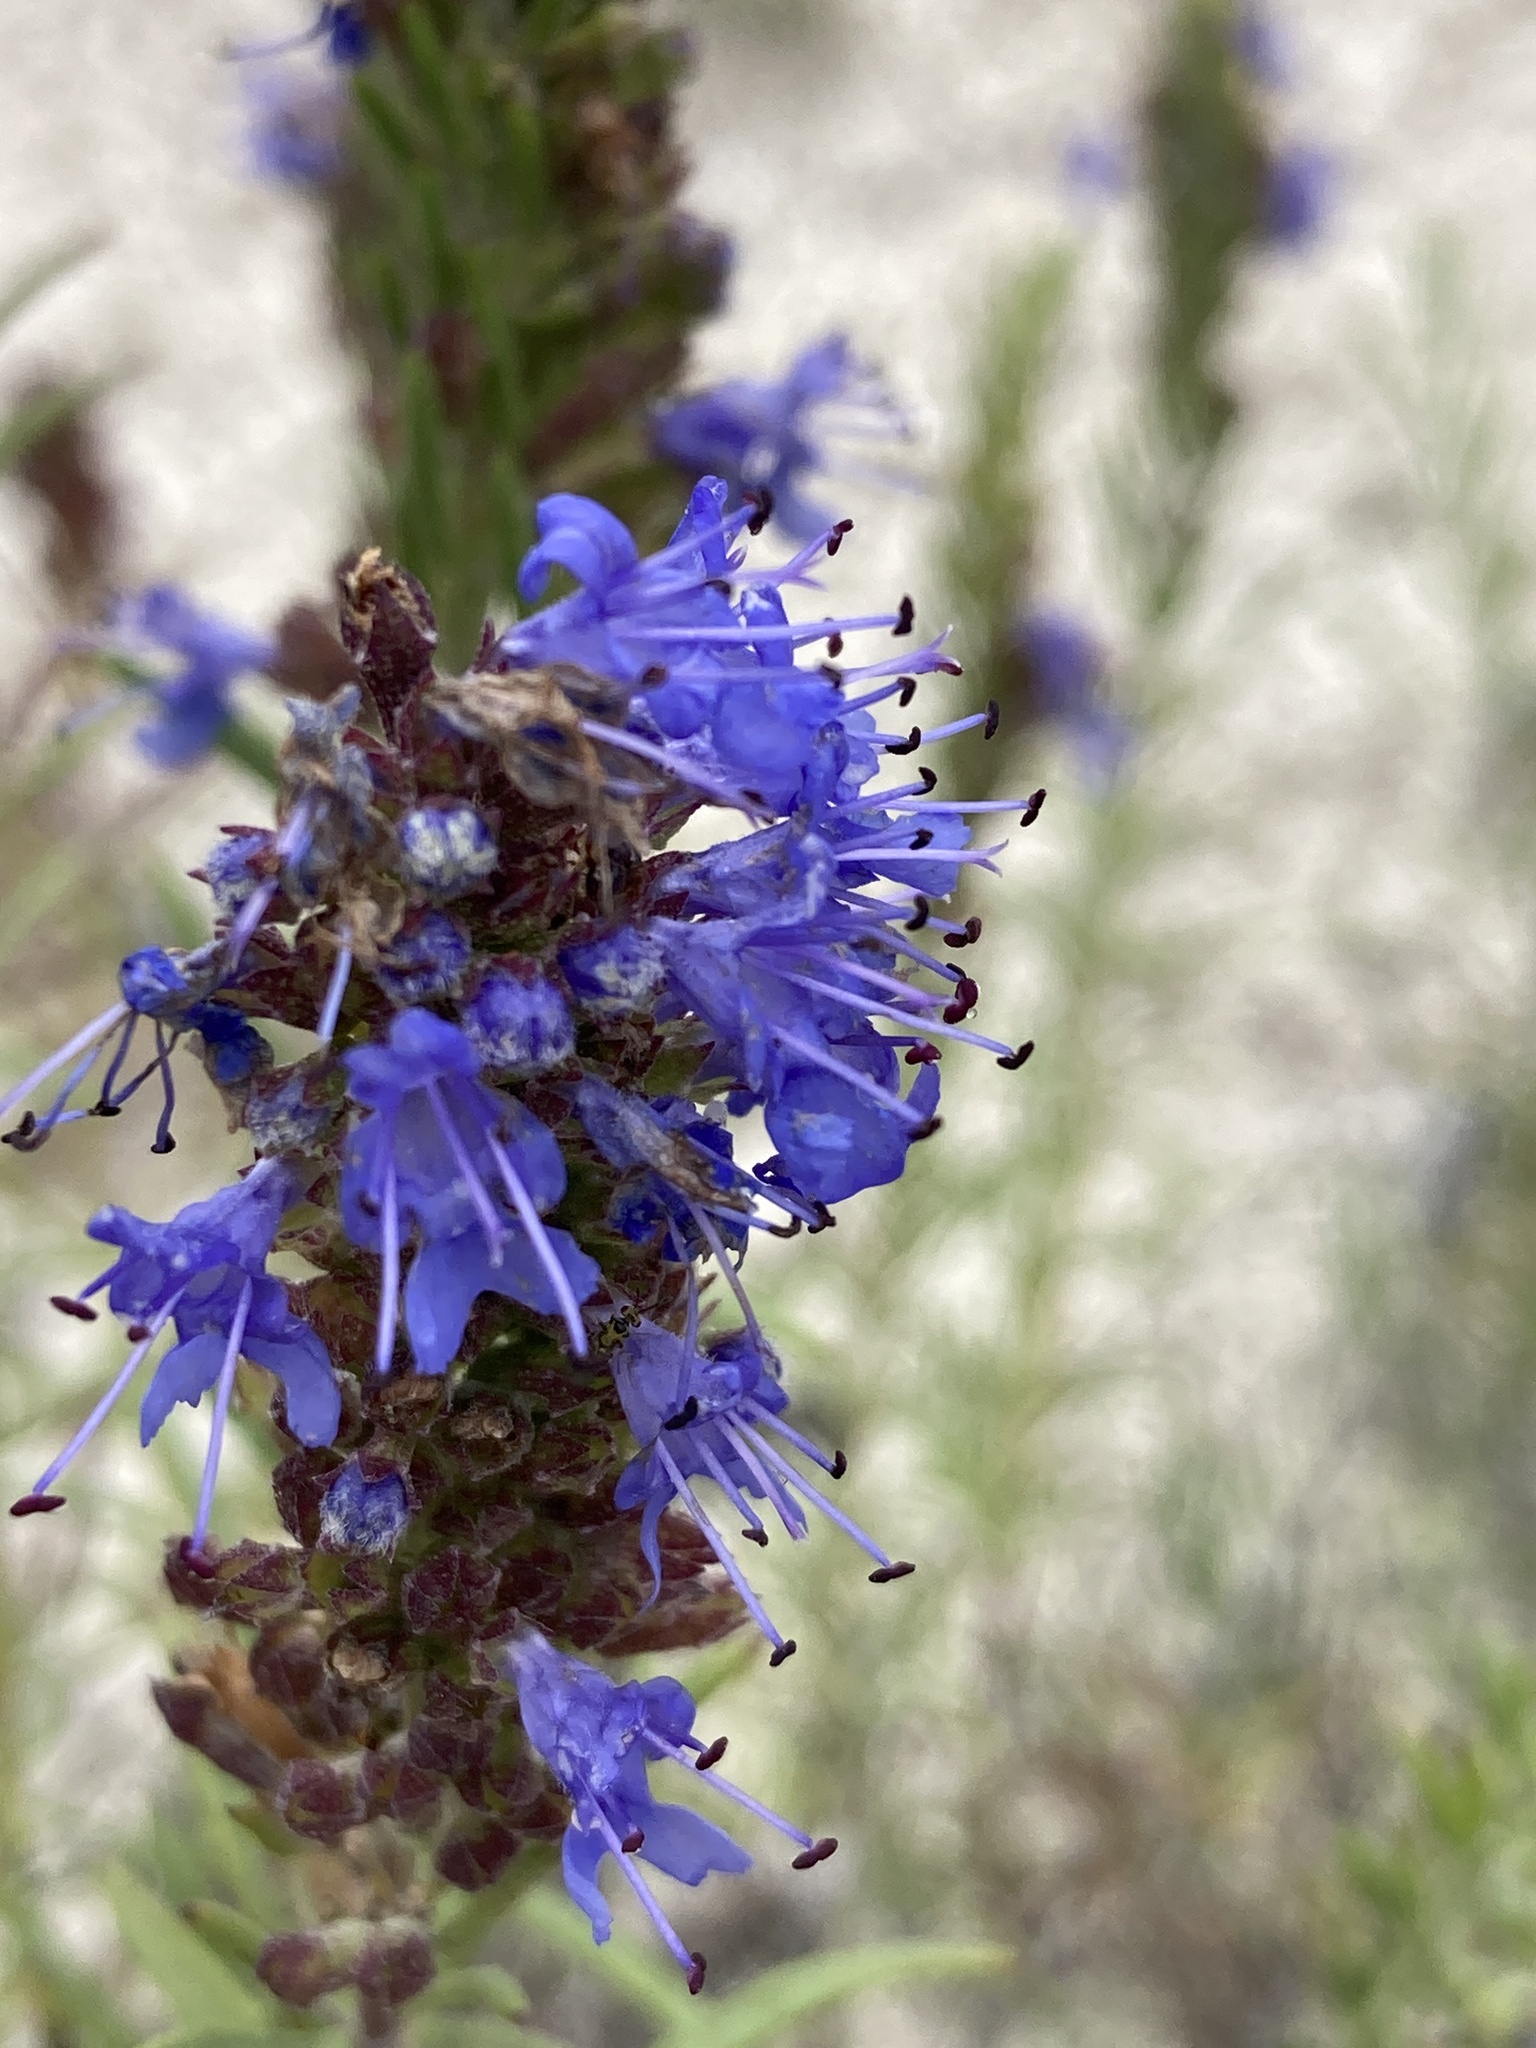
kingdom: Plantae
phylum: Tracheophyta
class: Magnoliopsida
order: Lamiales
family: Lamiaceae
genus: Hyssopus
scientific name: Hyssopus officinalis
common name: Hyssop
